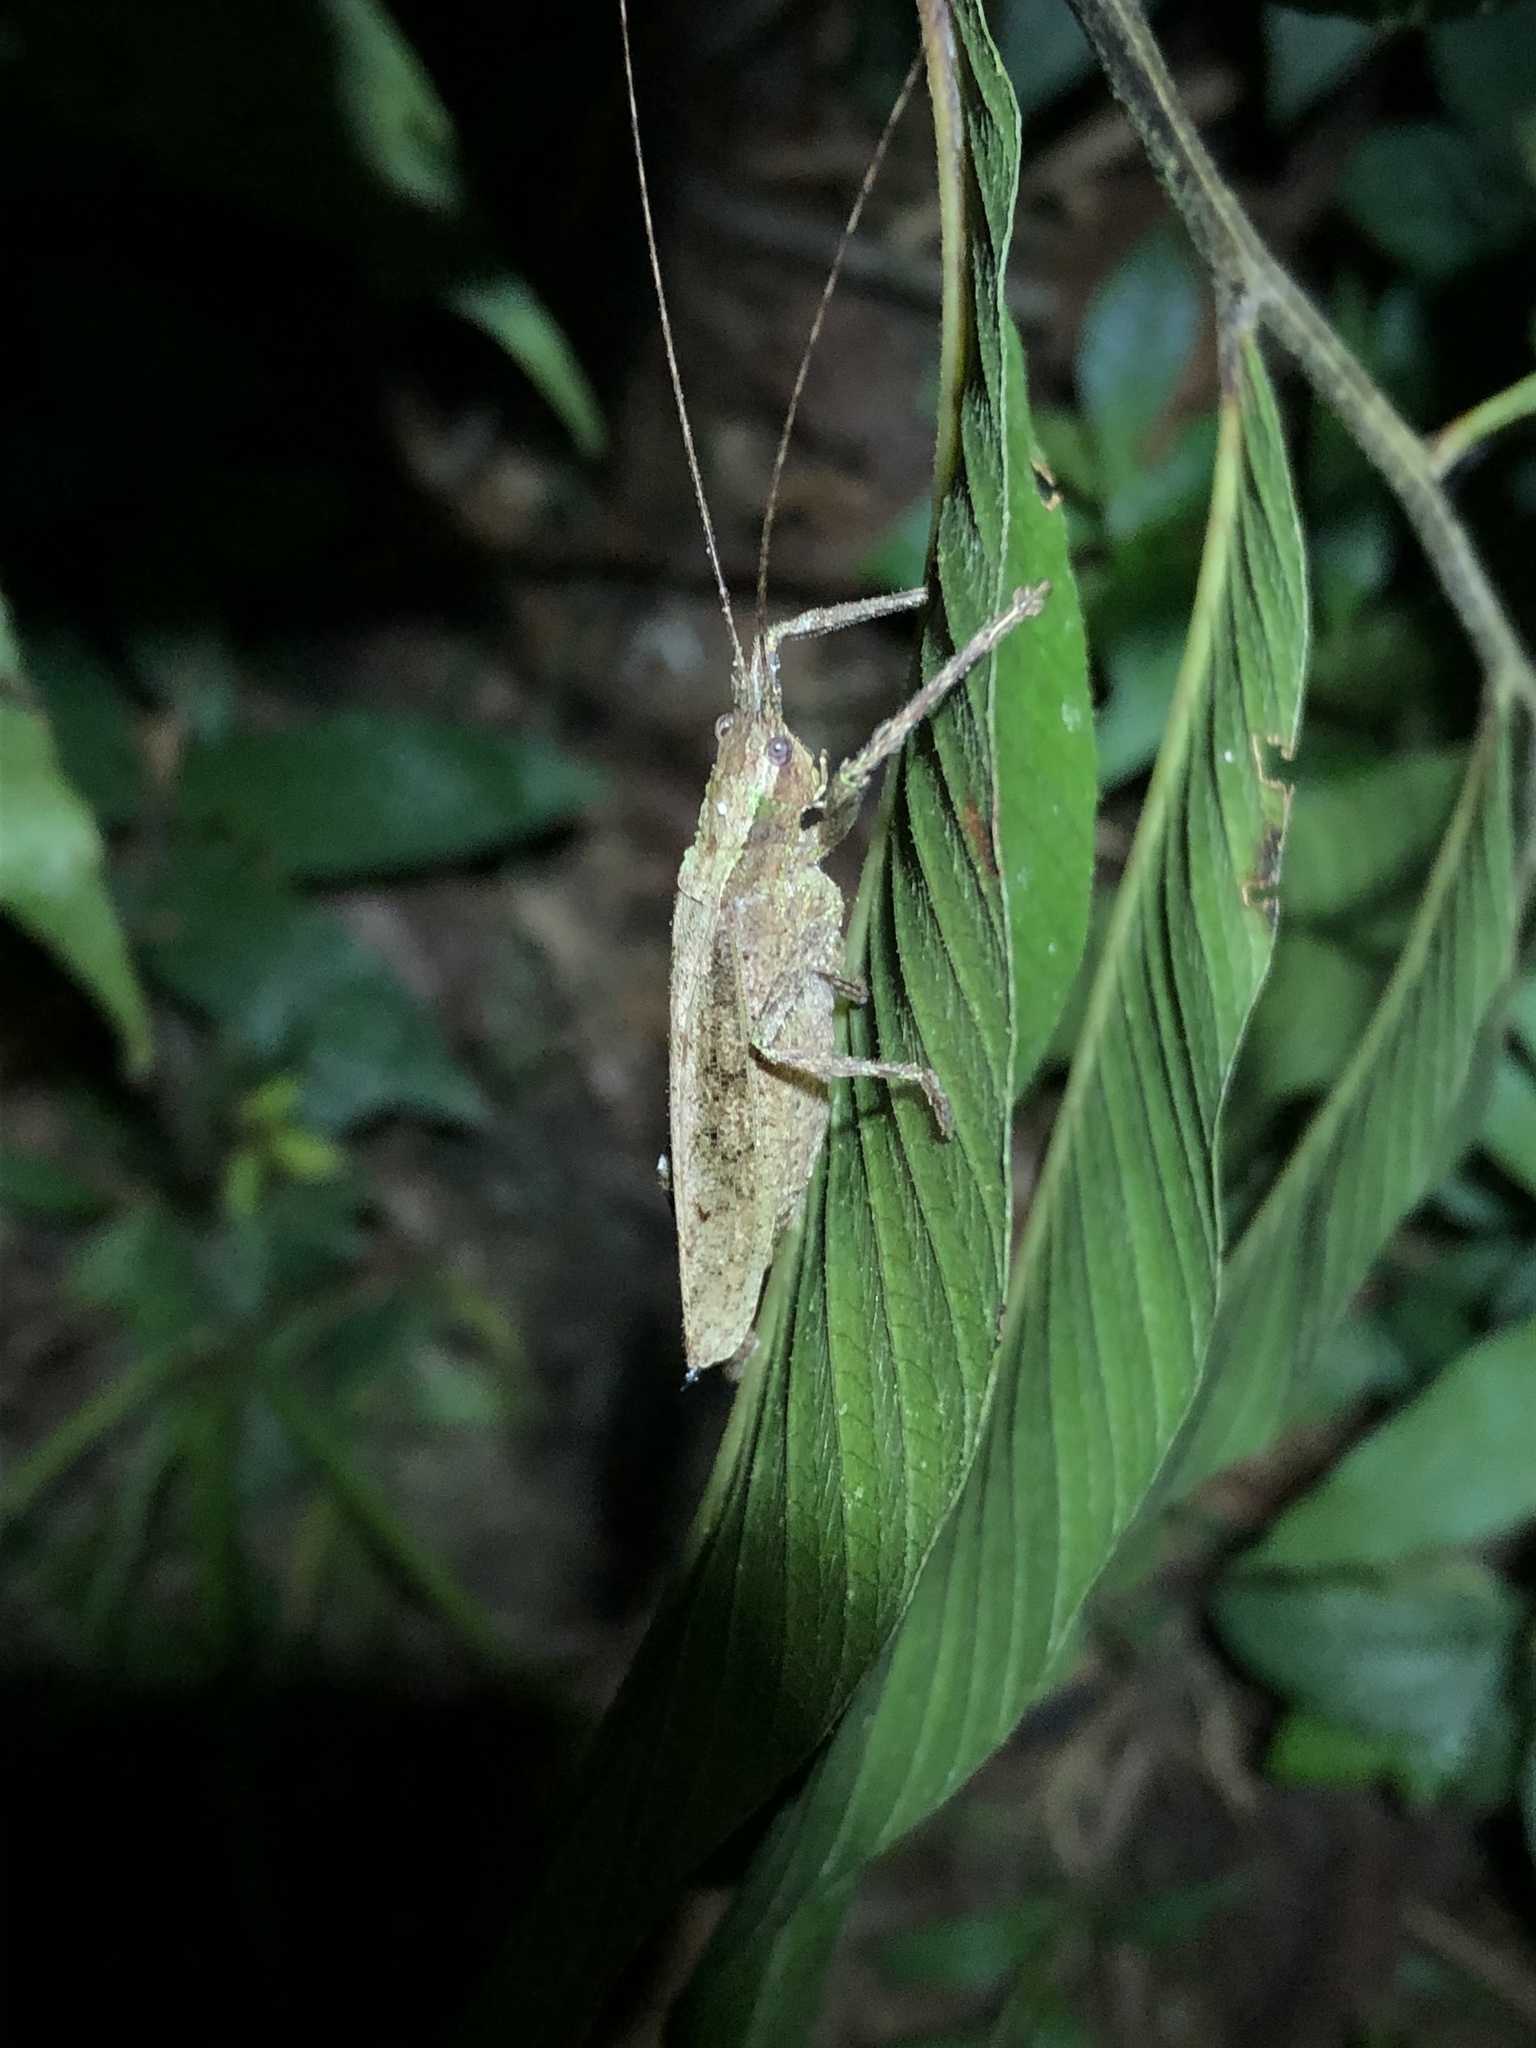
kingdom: Animalia
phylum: Arthropoda
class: Insecta
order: Orthoptera
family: Tettigoniidae
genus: Pedinothorax
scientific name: Pedinothorax exiguus
